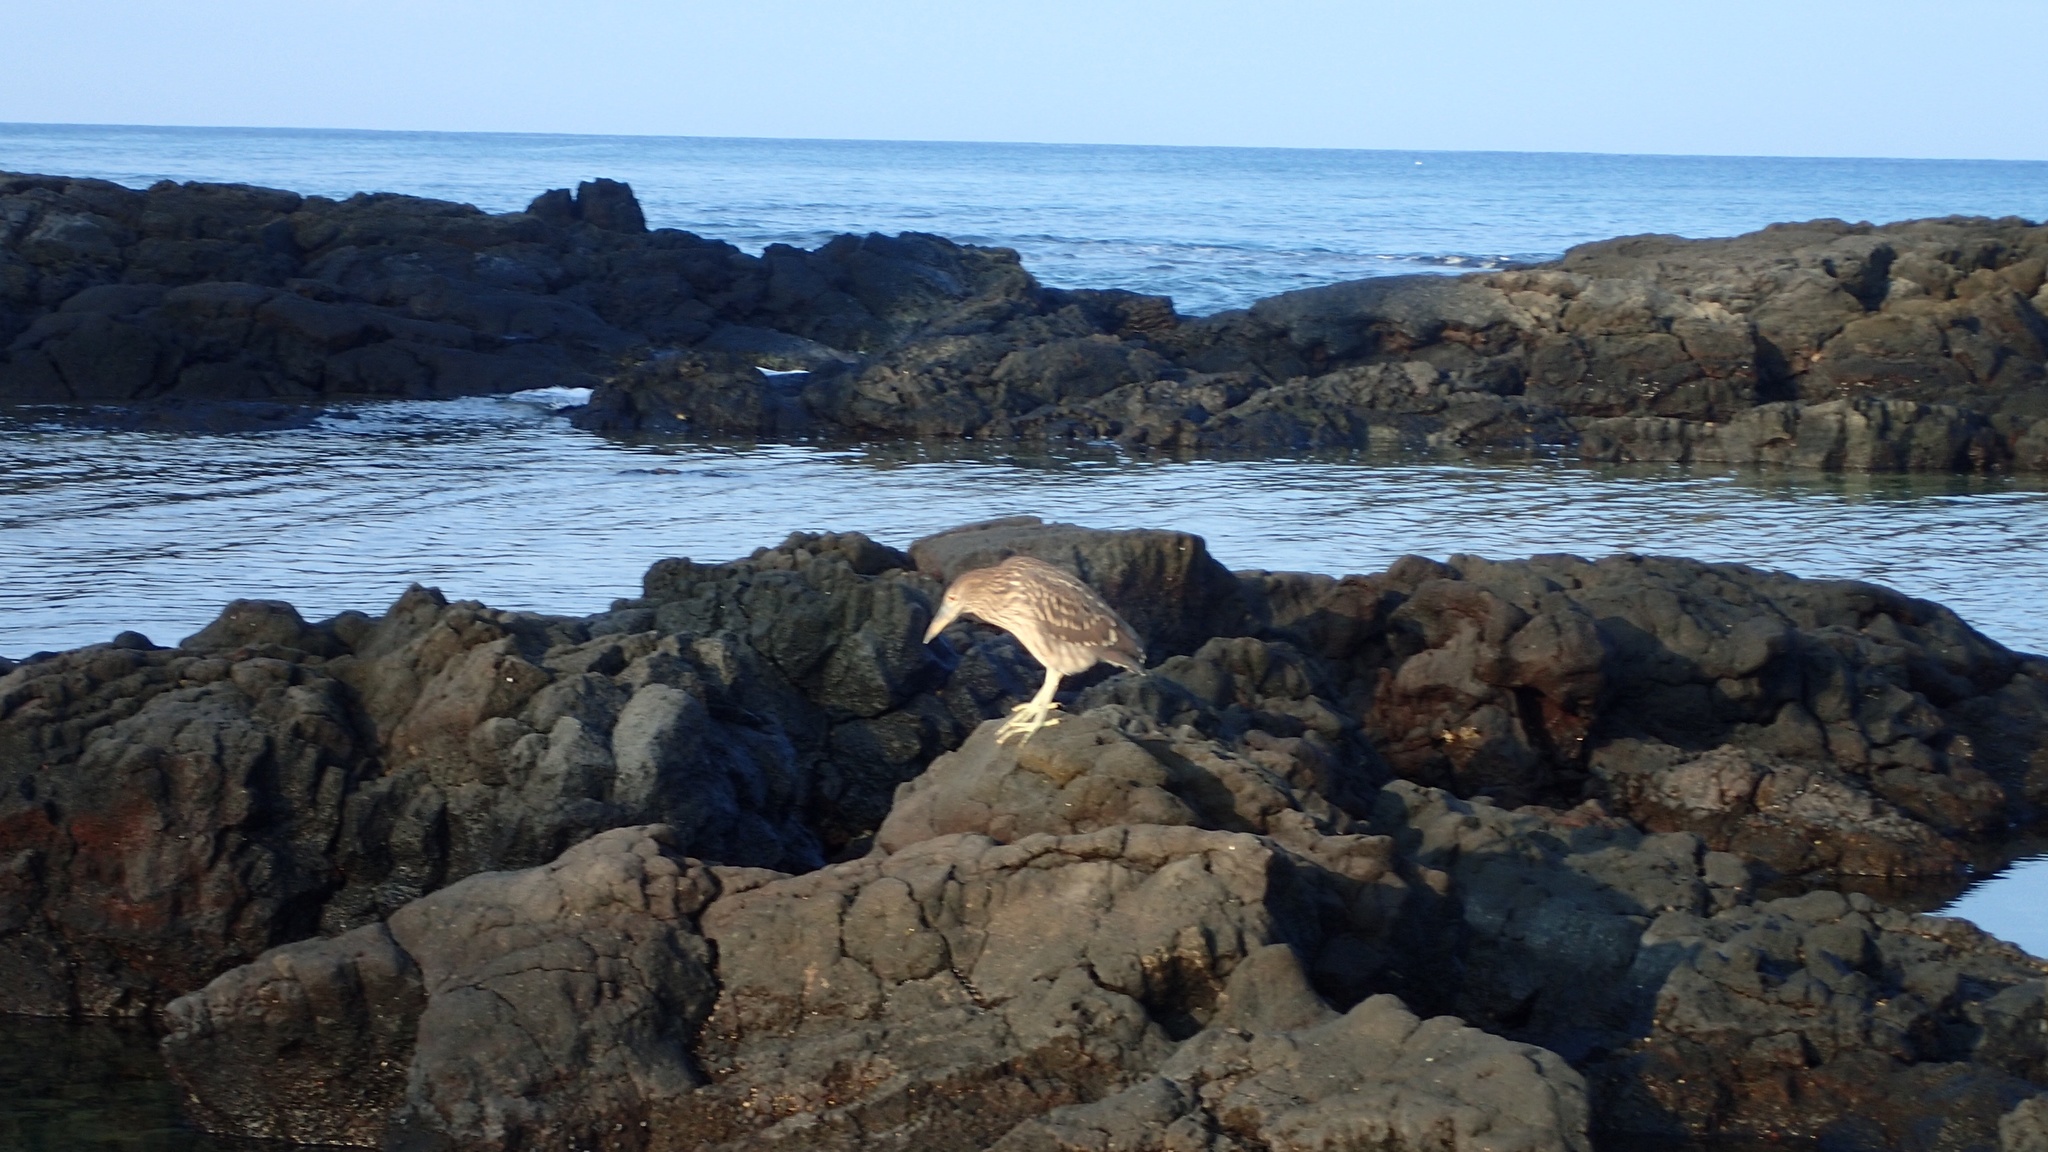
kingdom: Animalia
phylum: Chordata
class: Aves
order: Pelecaniformes
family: Ardeidae
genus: Nycticorax
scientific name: Nycticorax nycticorax
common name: Black-crowned night heron
